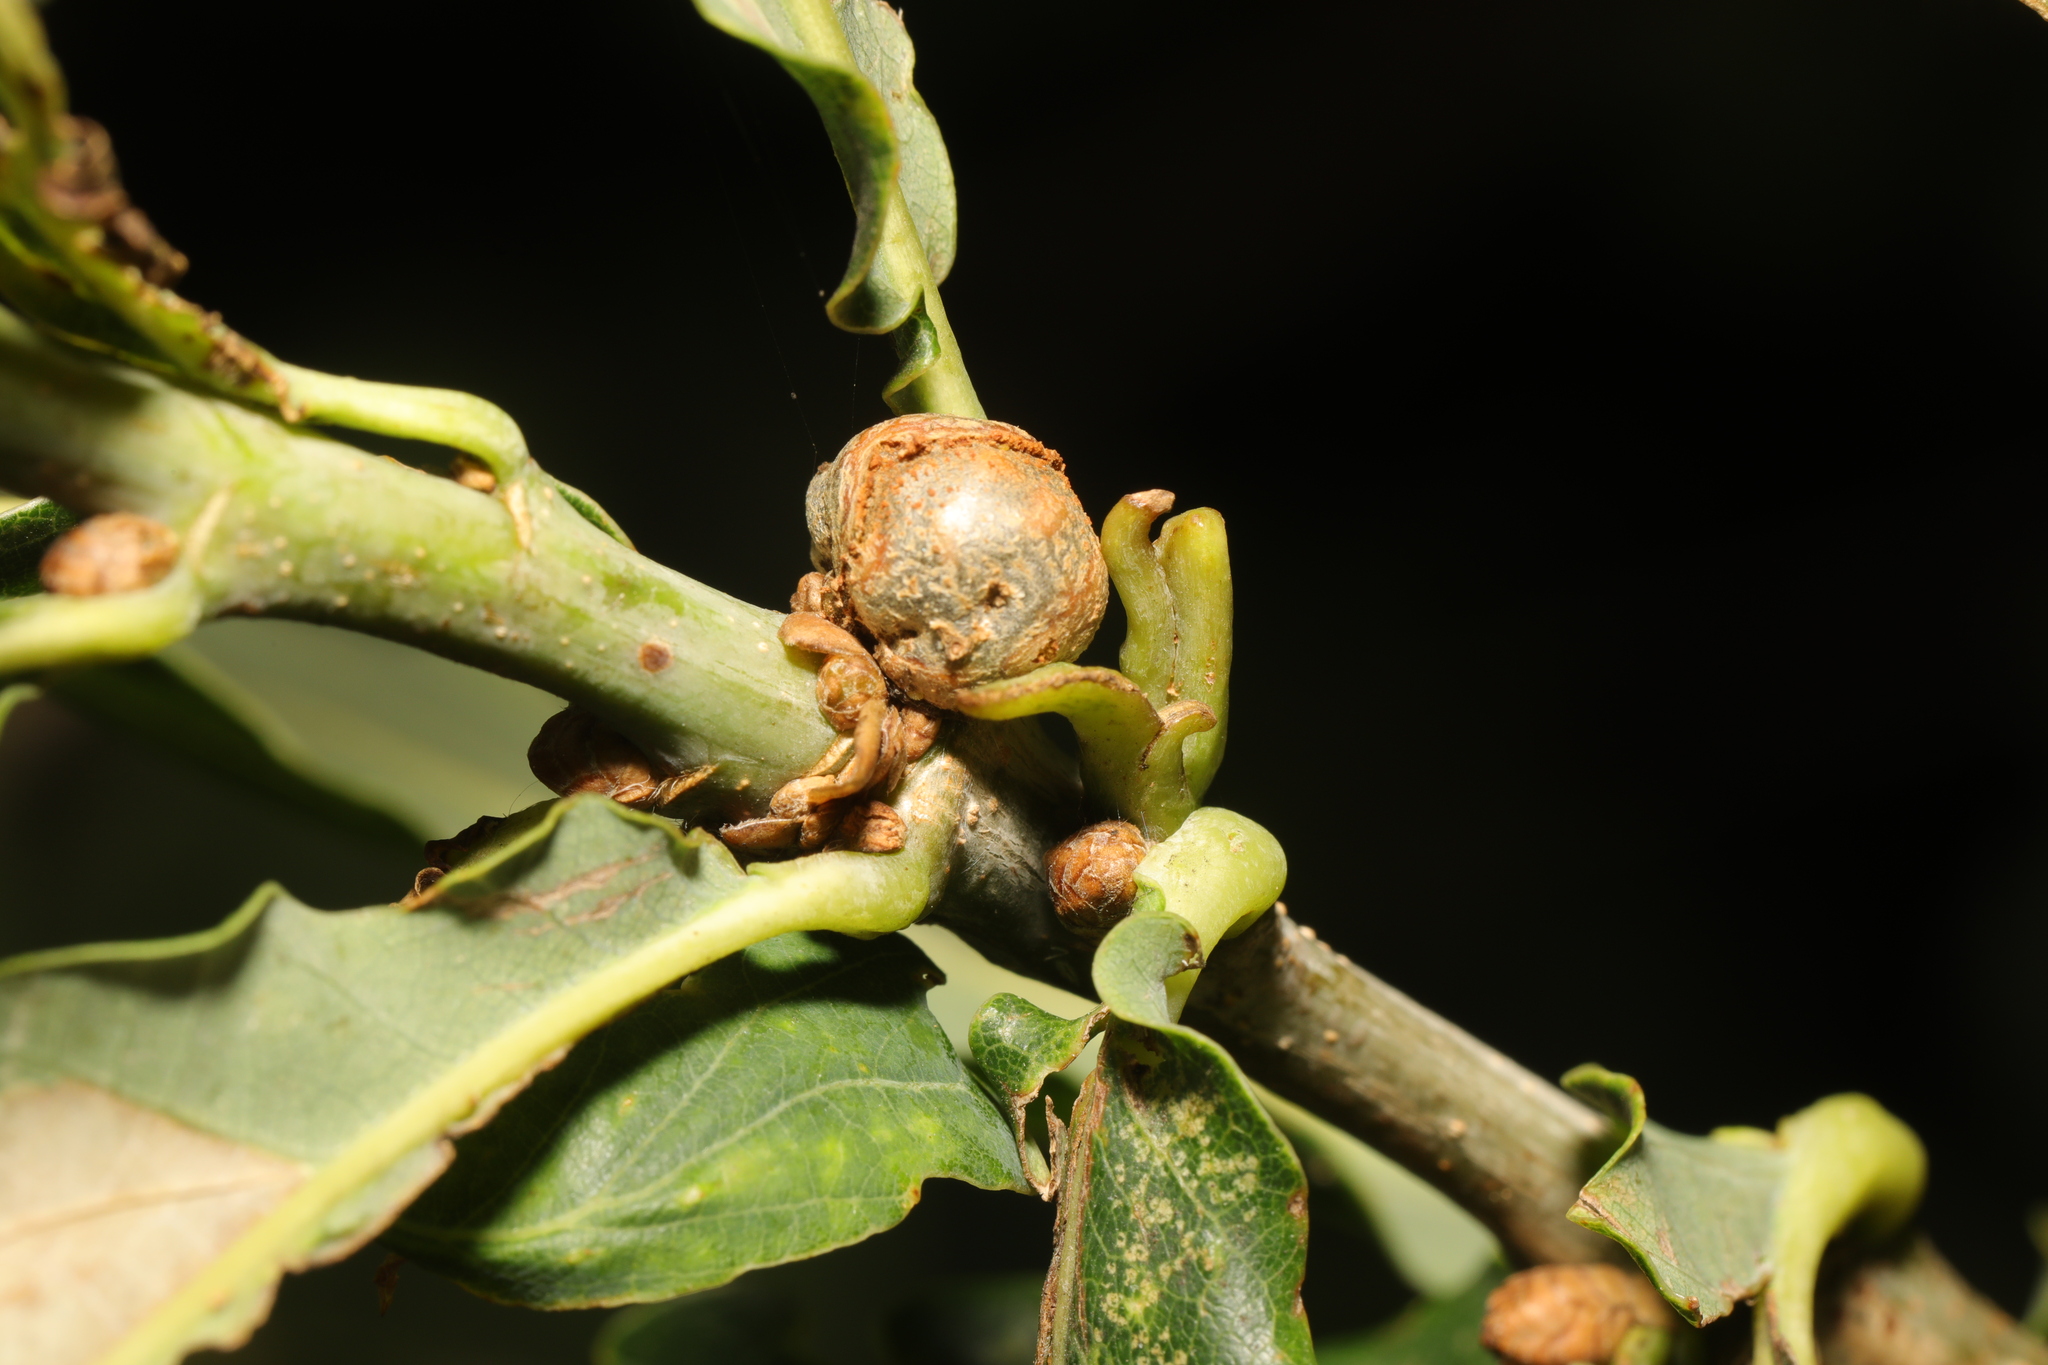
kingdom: Animalia
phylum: Arthropoda
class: Insecta
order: Hymenoptera
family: Cynipidae
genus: Andricus
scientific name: Andricus lignicolus
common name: Cola-nut gall
